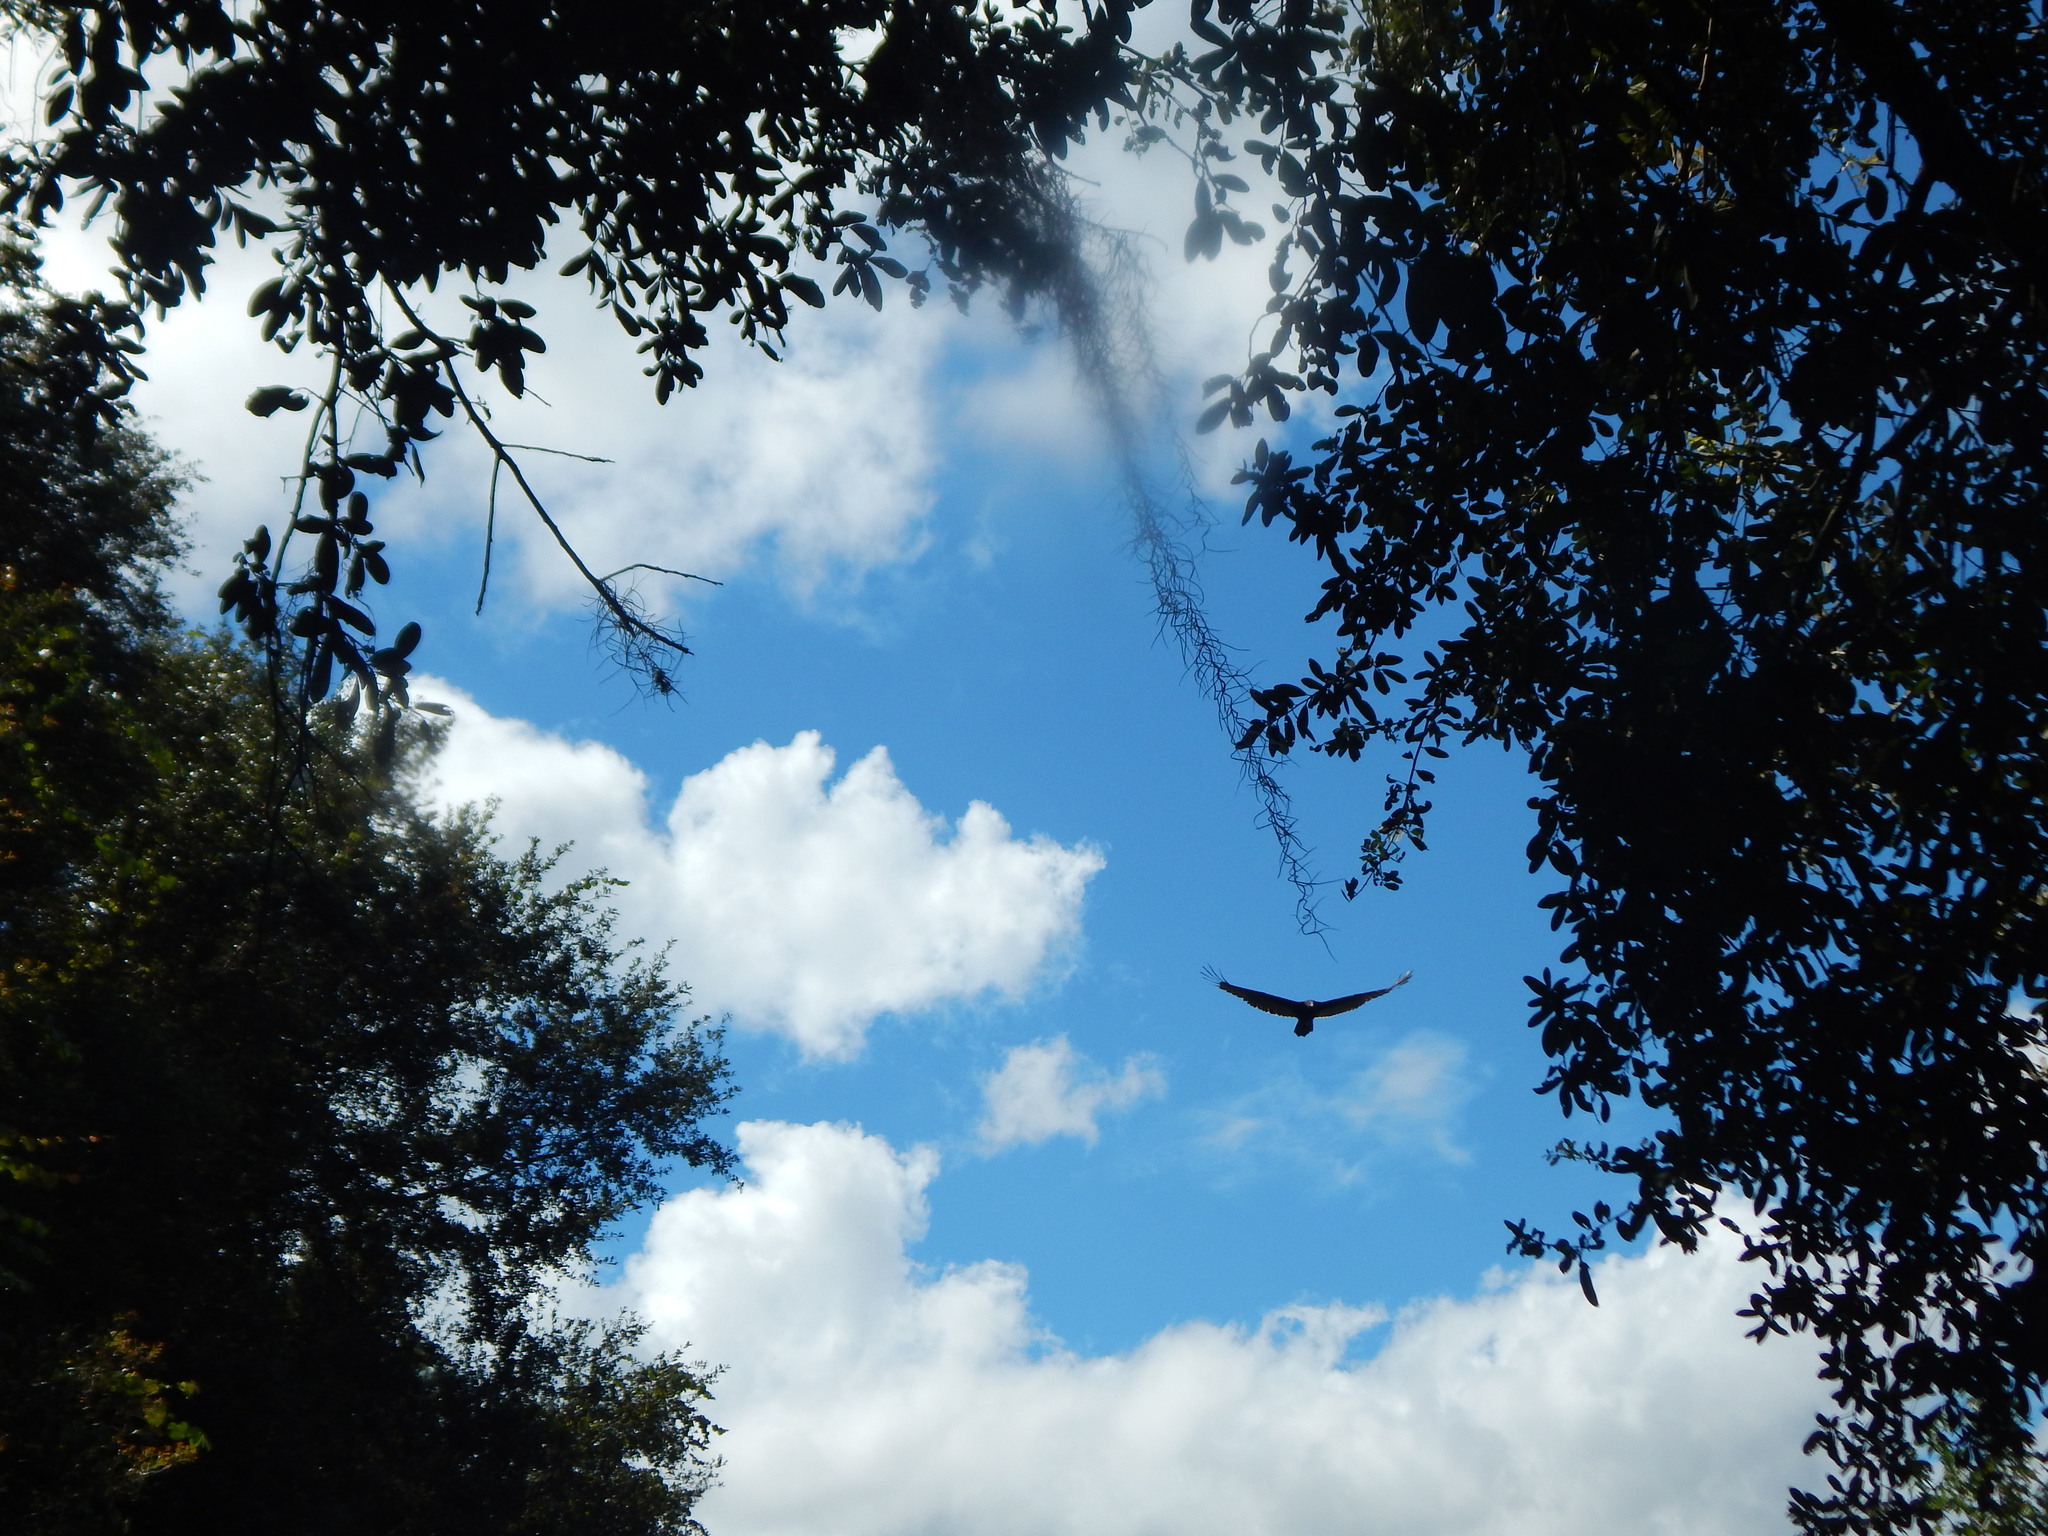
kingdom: Animalia
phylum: Chordata
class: Aves
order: Accipitriformes
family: Cathartidae
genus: Cathartes
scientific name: Cathartes aura
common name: Turkey vulture
